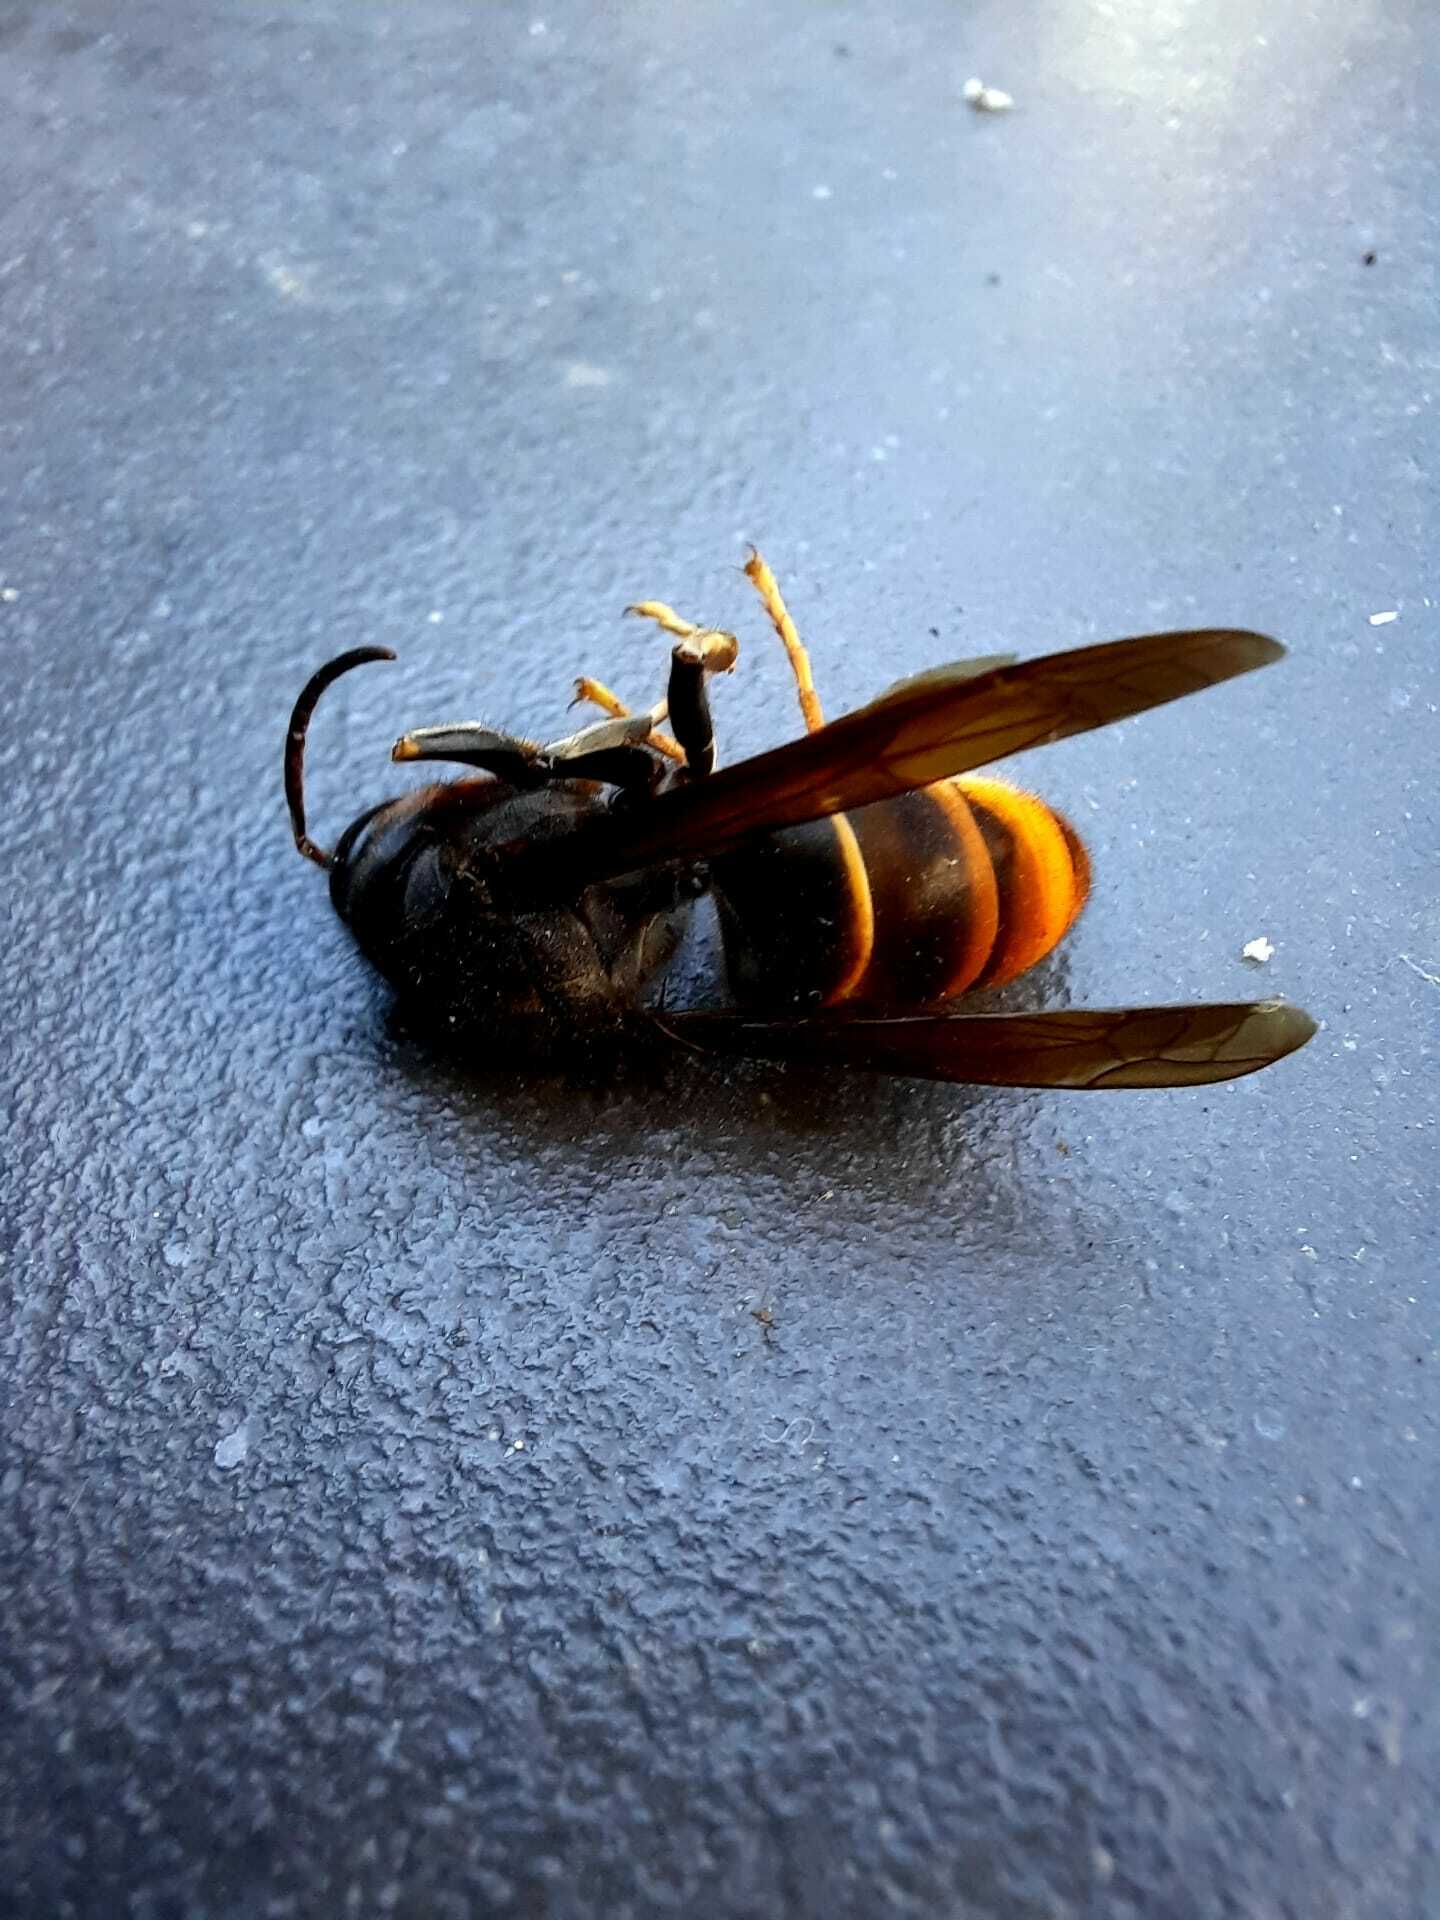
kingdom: Animalia
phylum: Arthropoda
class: Insecta
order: Hymenoptera
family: Vespidae
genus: Vespa
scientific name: Vespa velutina
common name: Asian hornet
